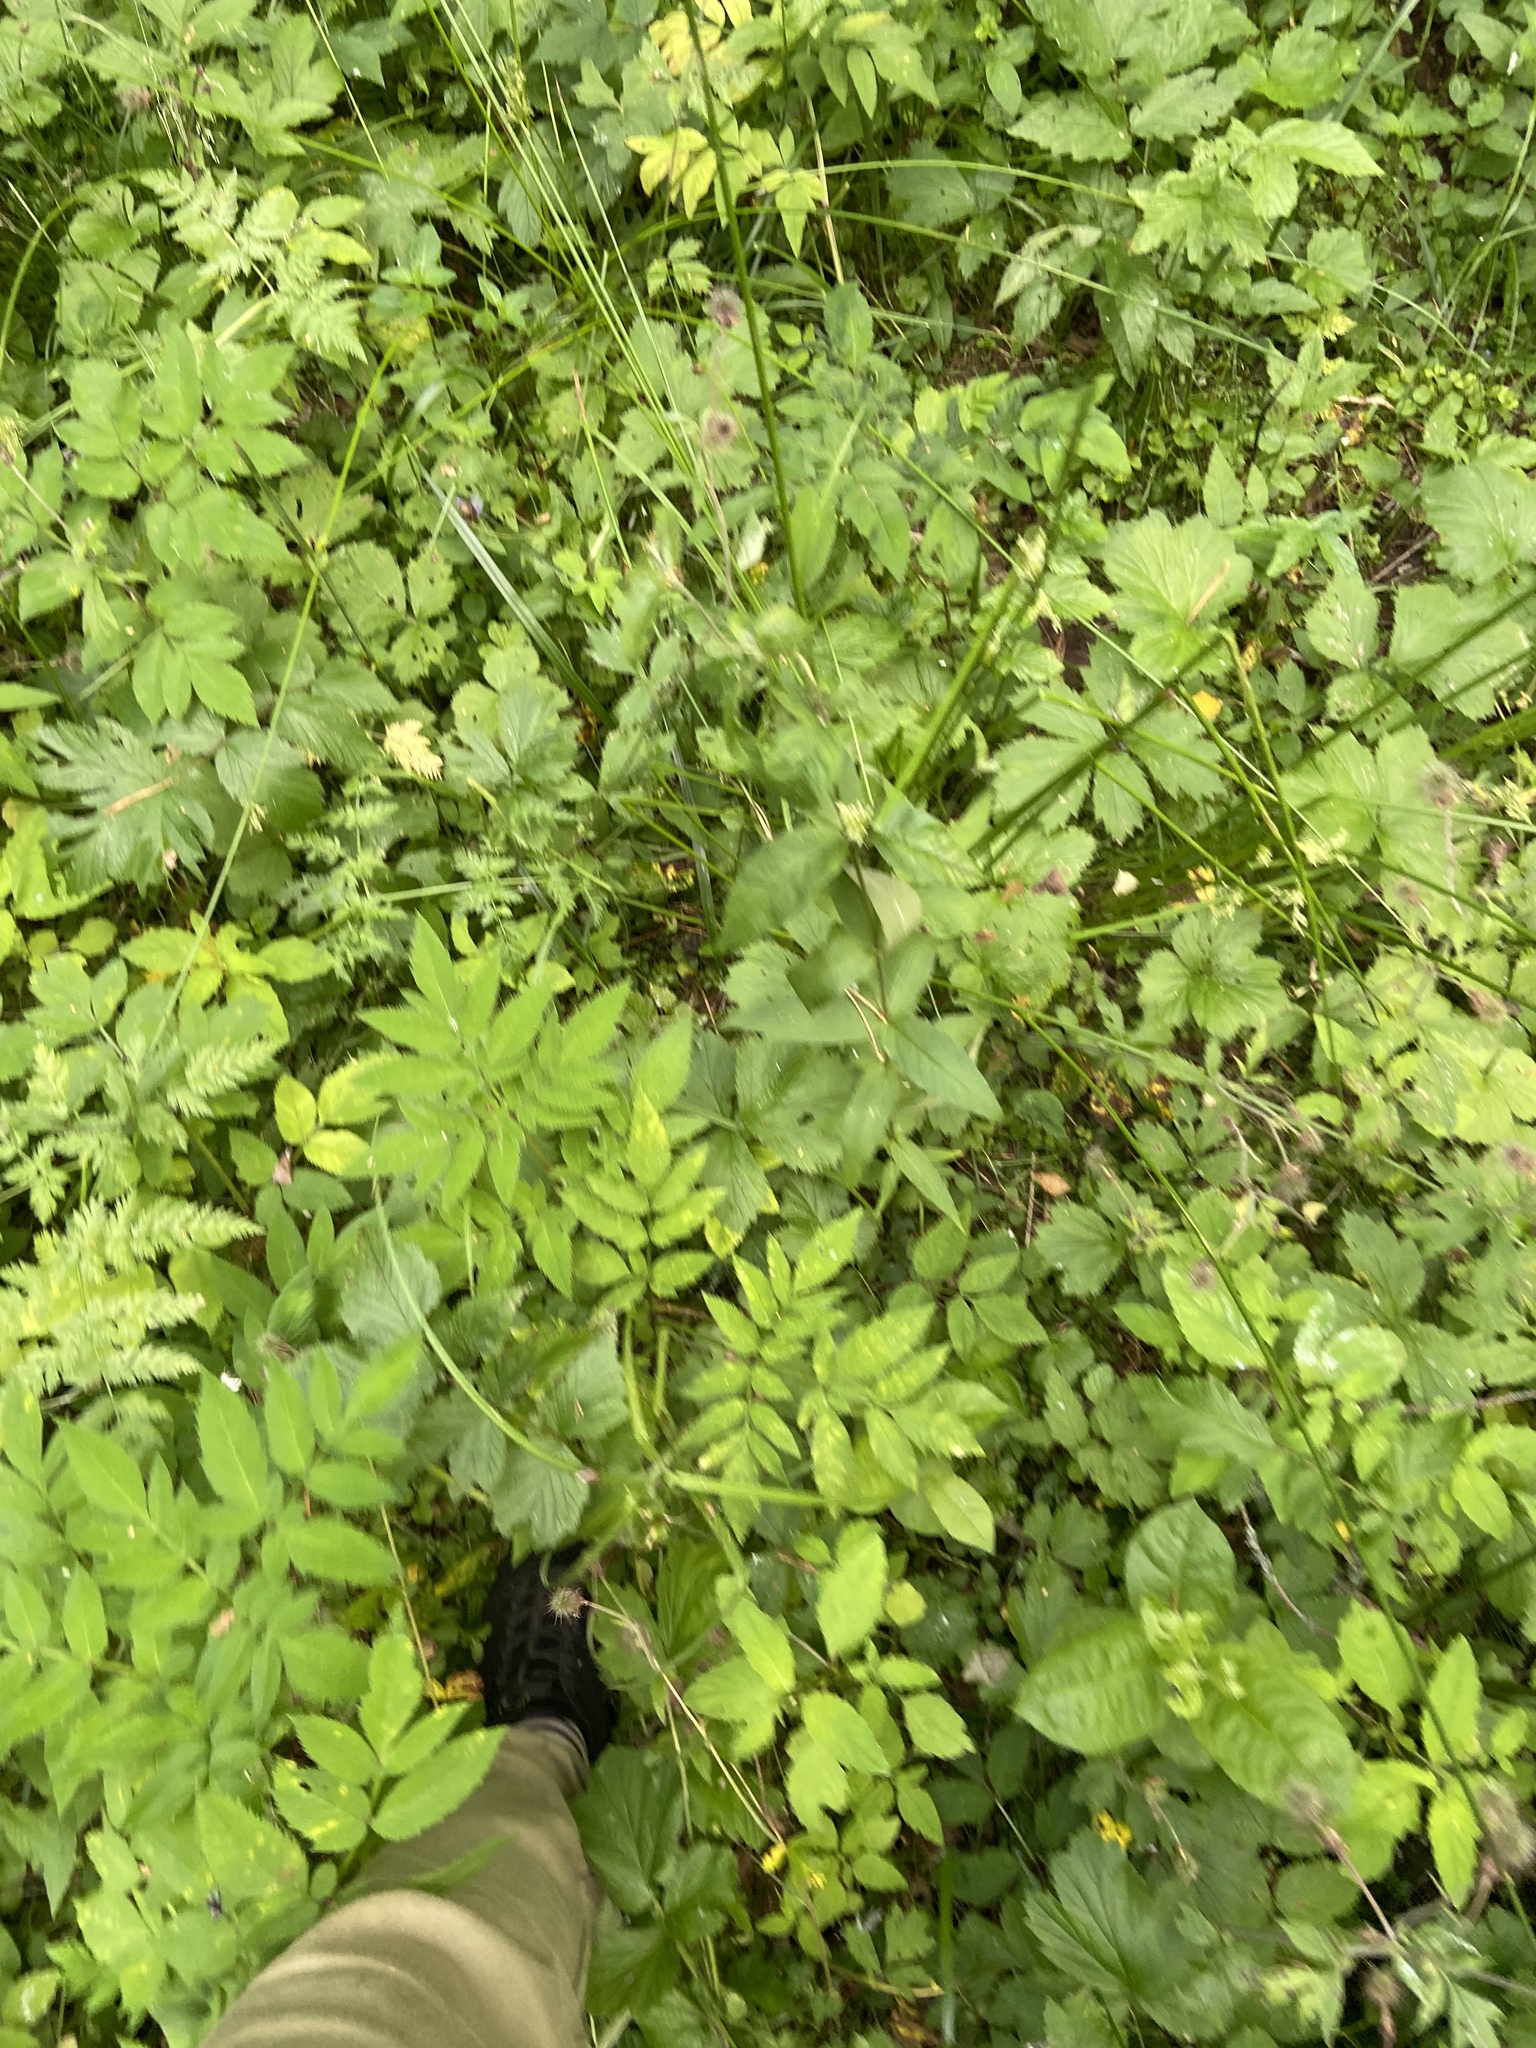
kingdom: Plantae
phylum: Tracheophyta
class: Magnoliopsida
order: Rosales
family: Rosaceae
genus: Geum
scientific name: Geum rivale
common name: Water avens
